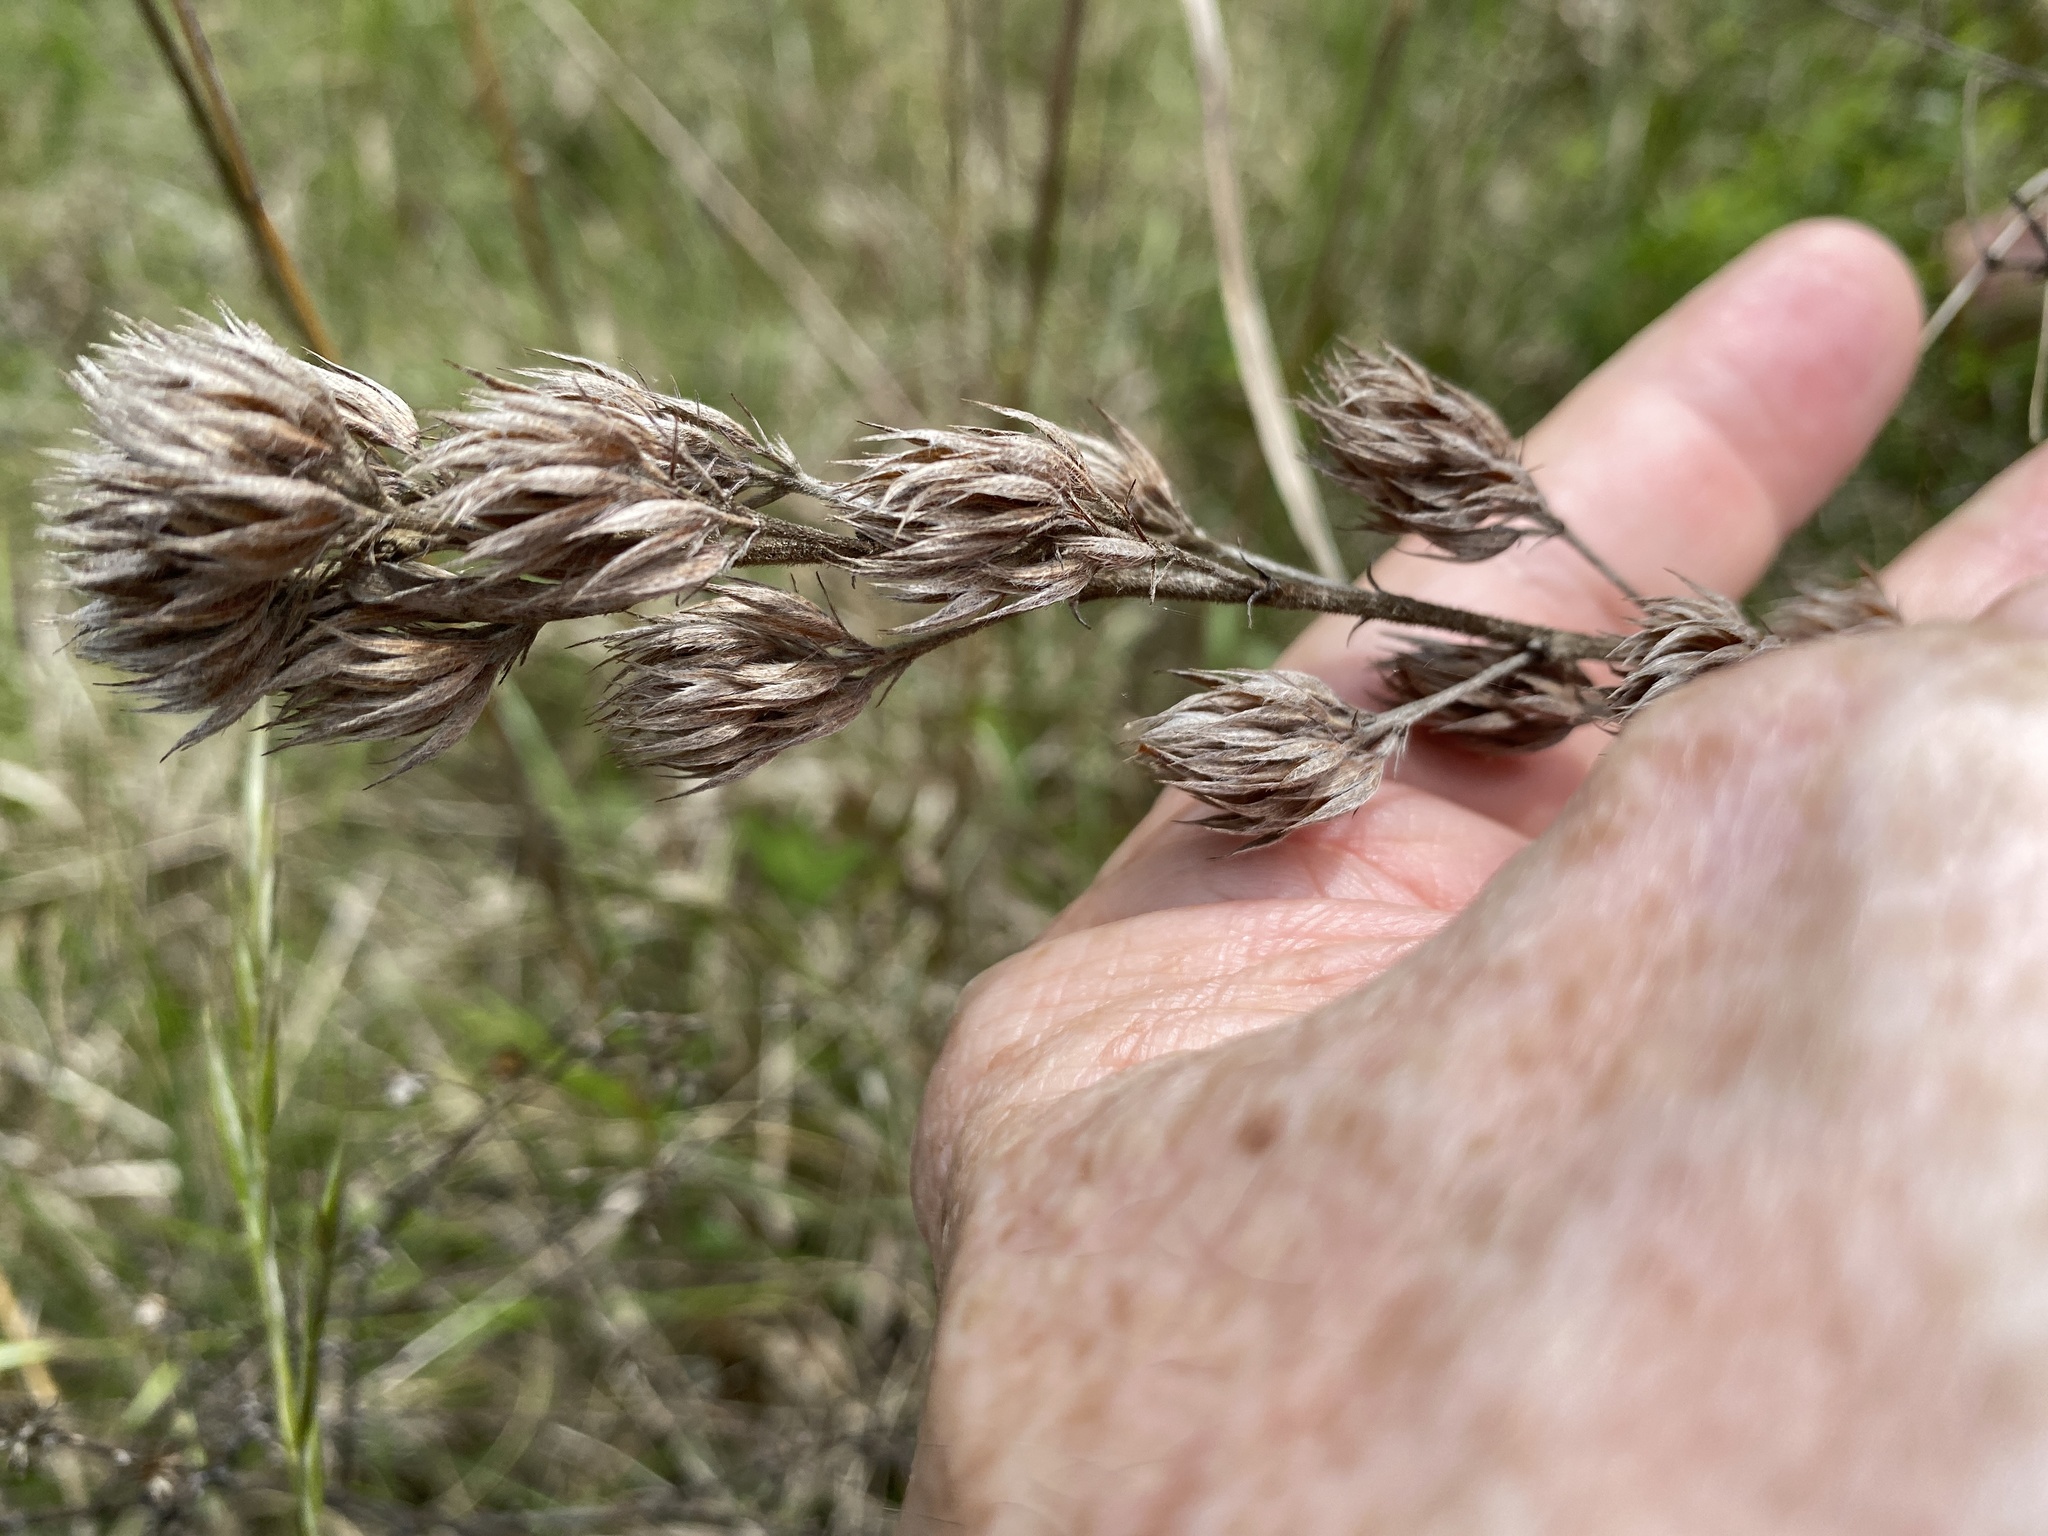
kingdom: Plantae
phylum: Tracheophyta
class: Magnoliopsida
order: Fabales
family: Fabaceae
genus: Lespedeza
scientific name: Lespedeza capitata
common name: Dusty clover
